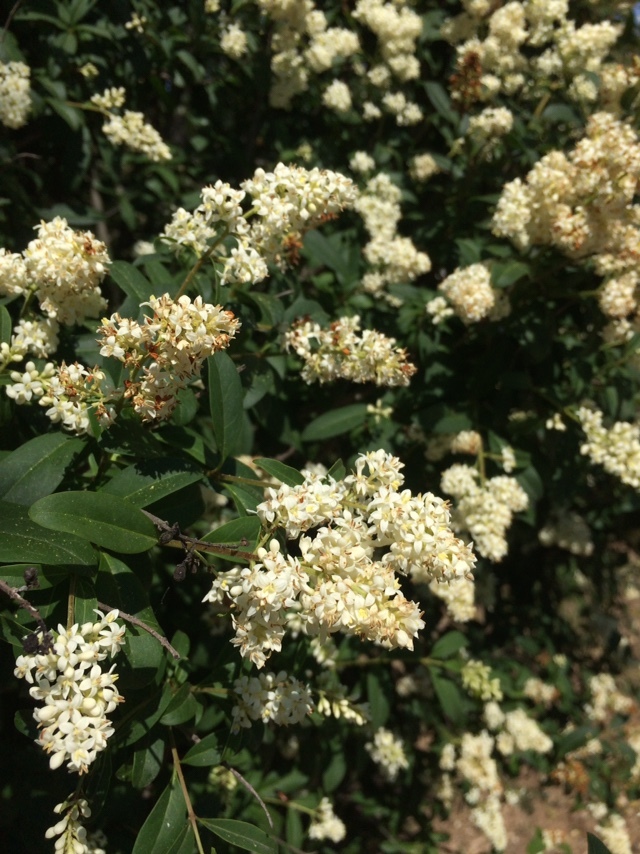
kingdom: Plantae
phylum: Tracheophyta
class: Magnoliopsida
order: Lamiales
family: Oleaceae
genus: Ligustrum
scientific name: Ligustrum vulgare
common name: Wild privet
